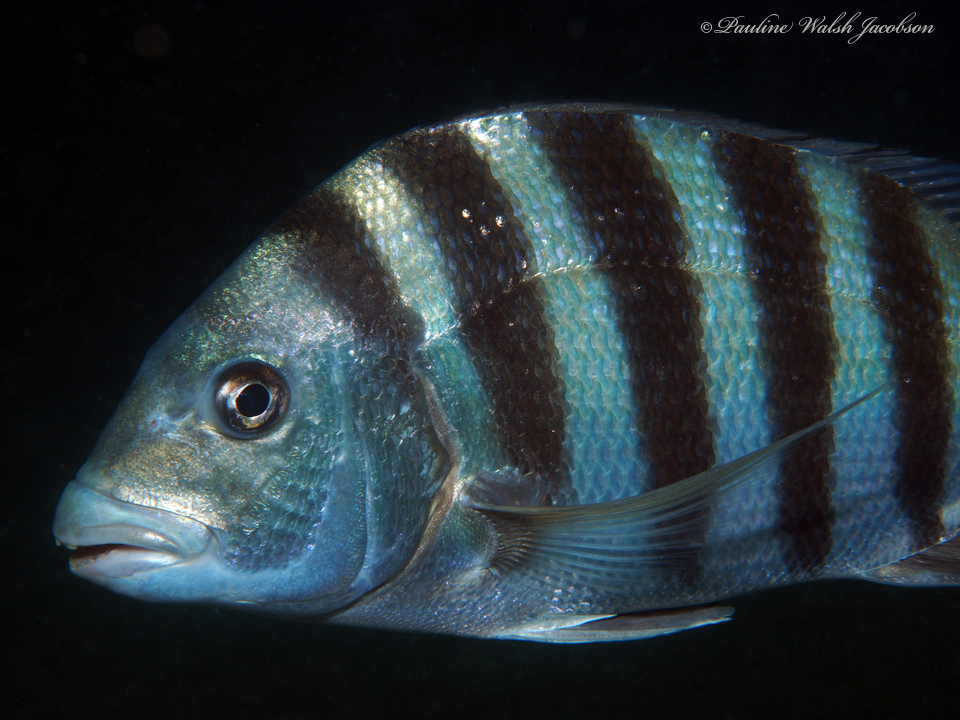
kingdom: Animalia
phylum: Chordata
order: Perciformes
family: Sparidae
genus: Archosargus
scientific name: Archosargus probatocephalus
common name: Sheepshead
